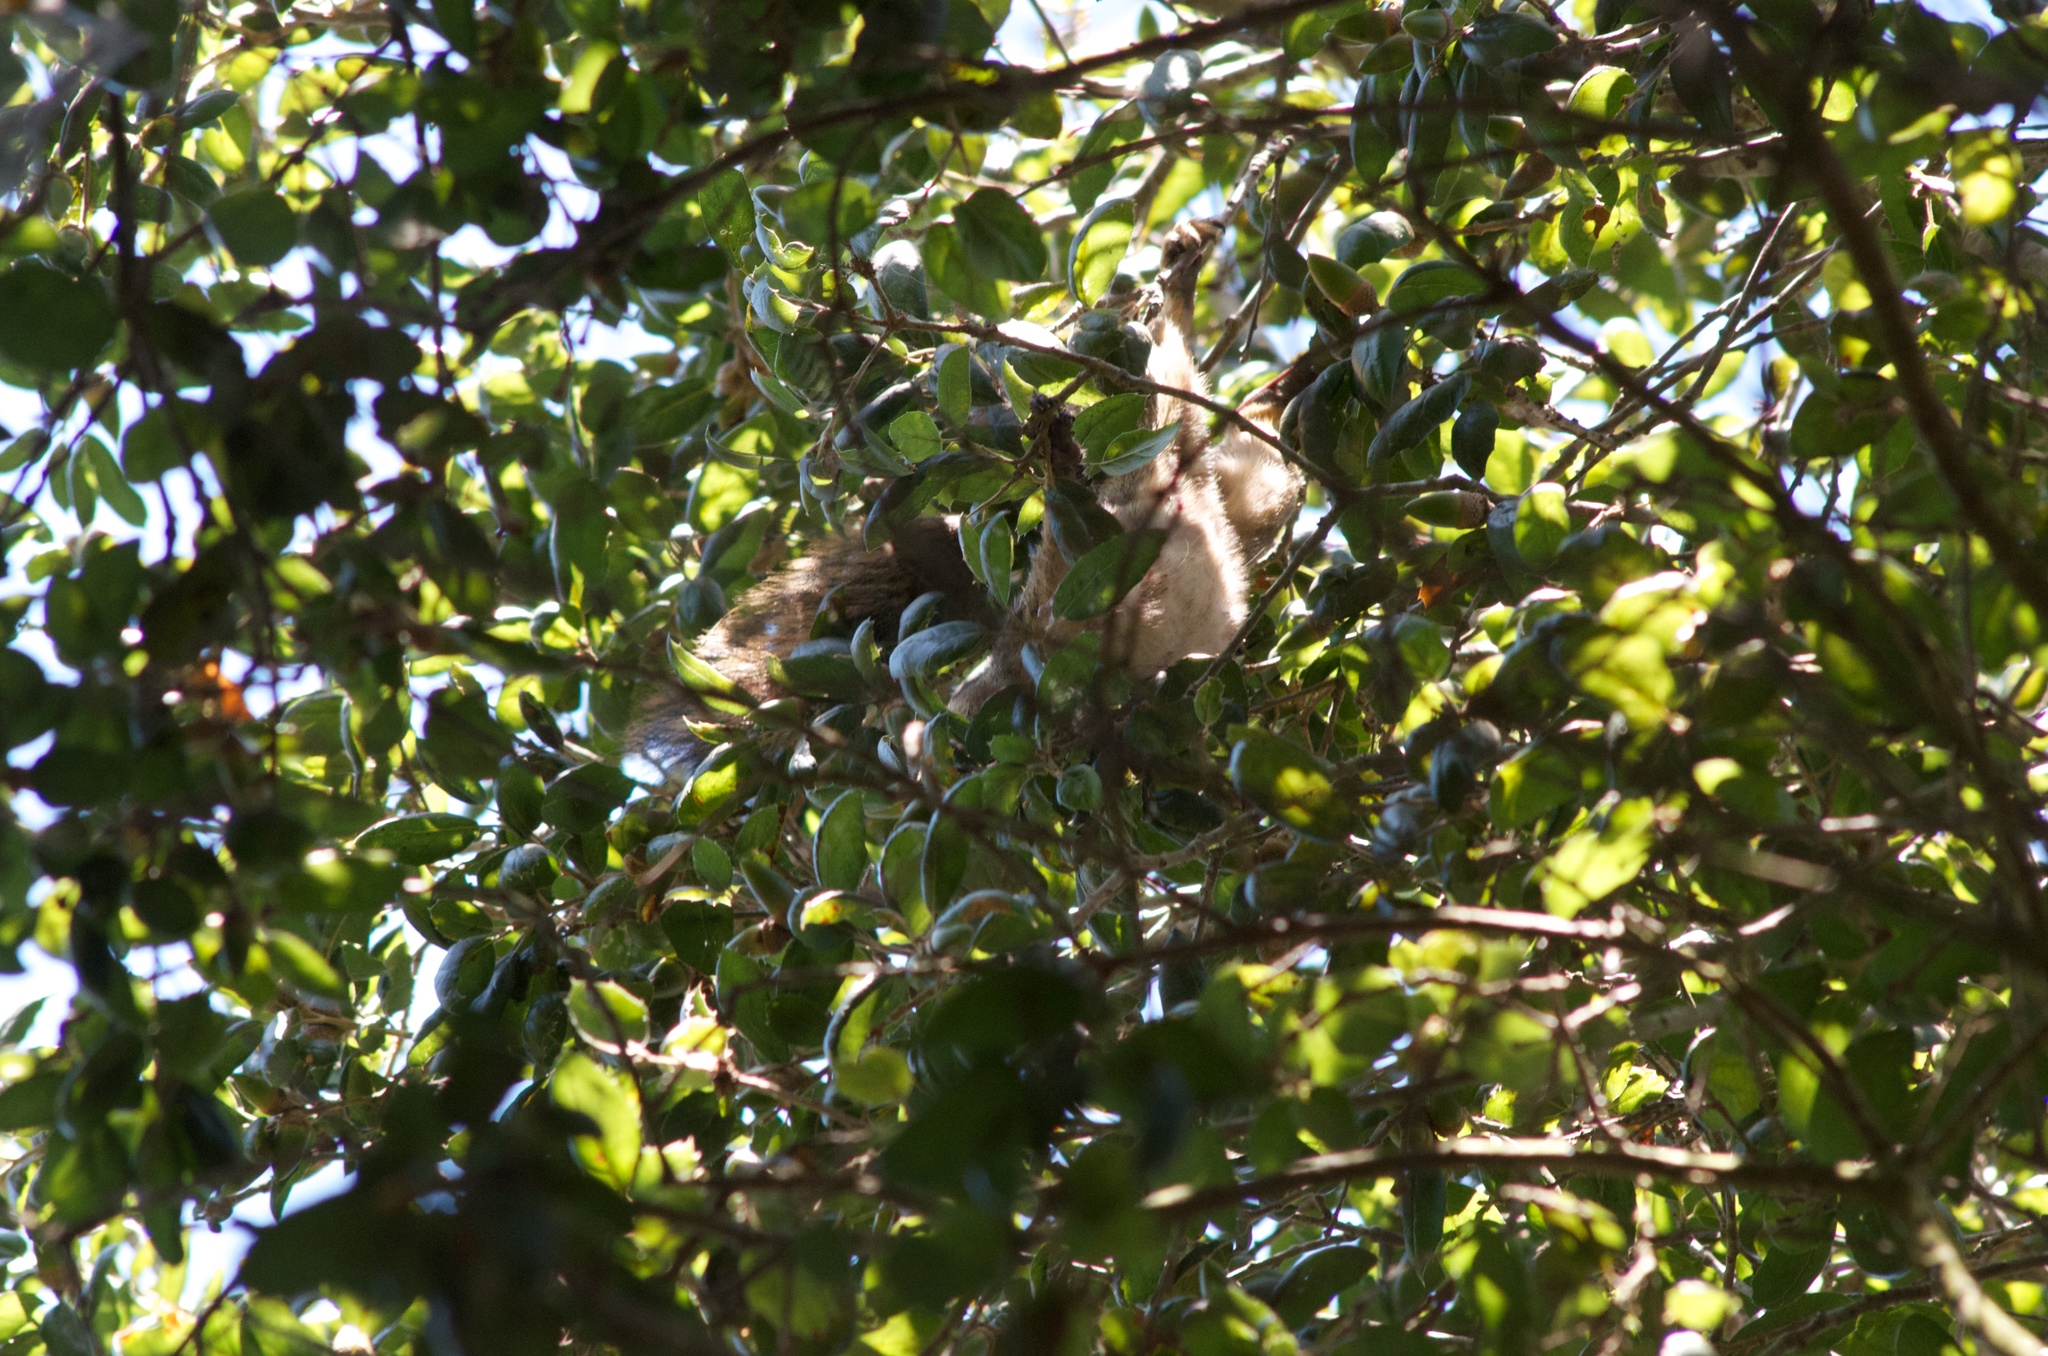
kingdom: Animalia
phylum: Chordata
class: Mammalia
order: Rodentia
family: Sciuridae
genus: Sciurus
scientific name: Sciurus niger
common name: Fox squirrel
